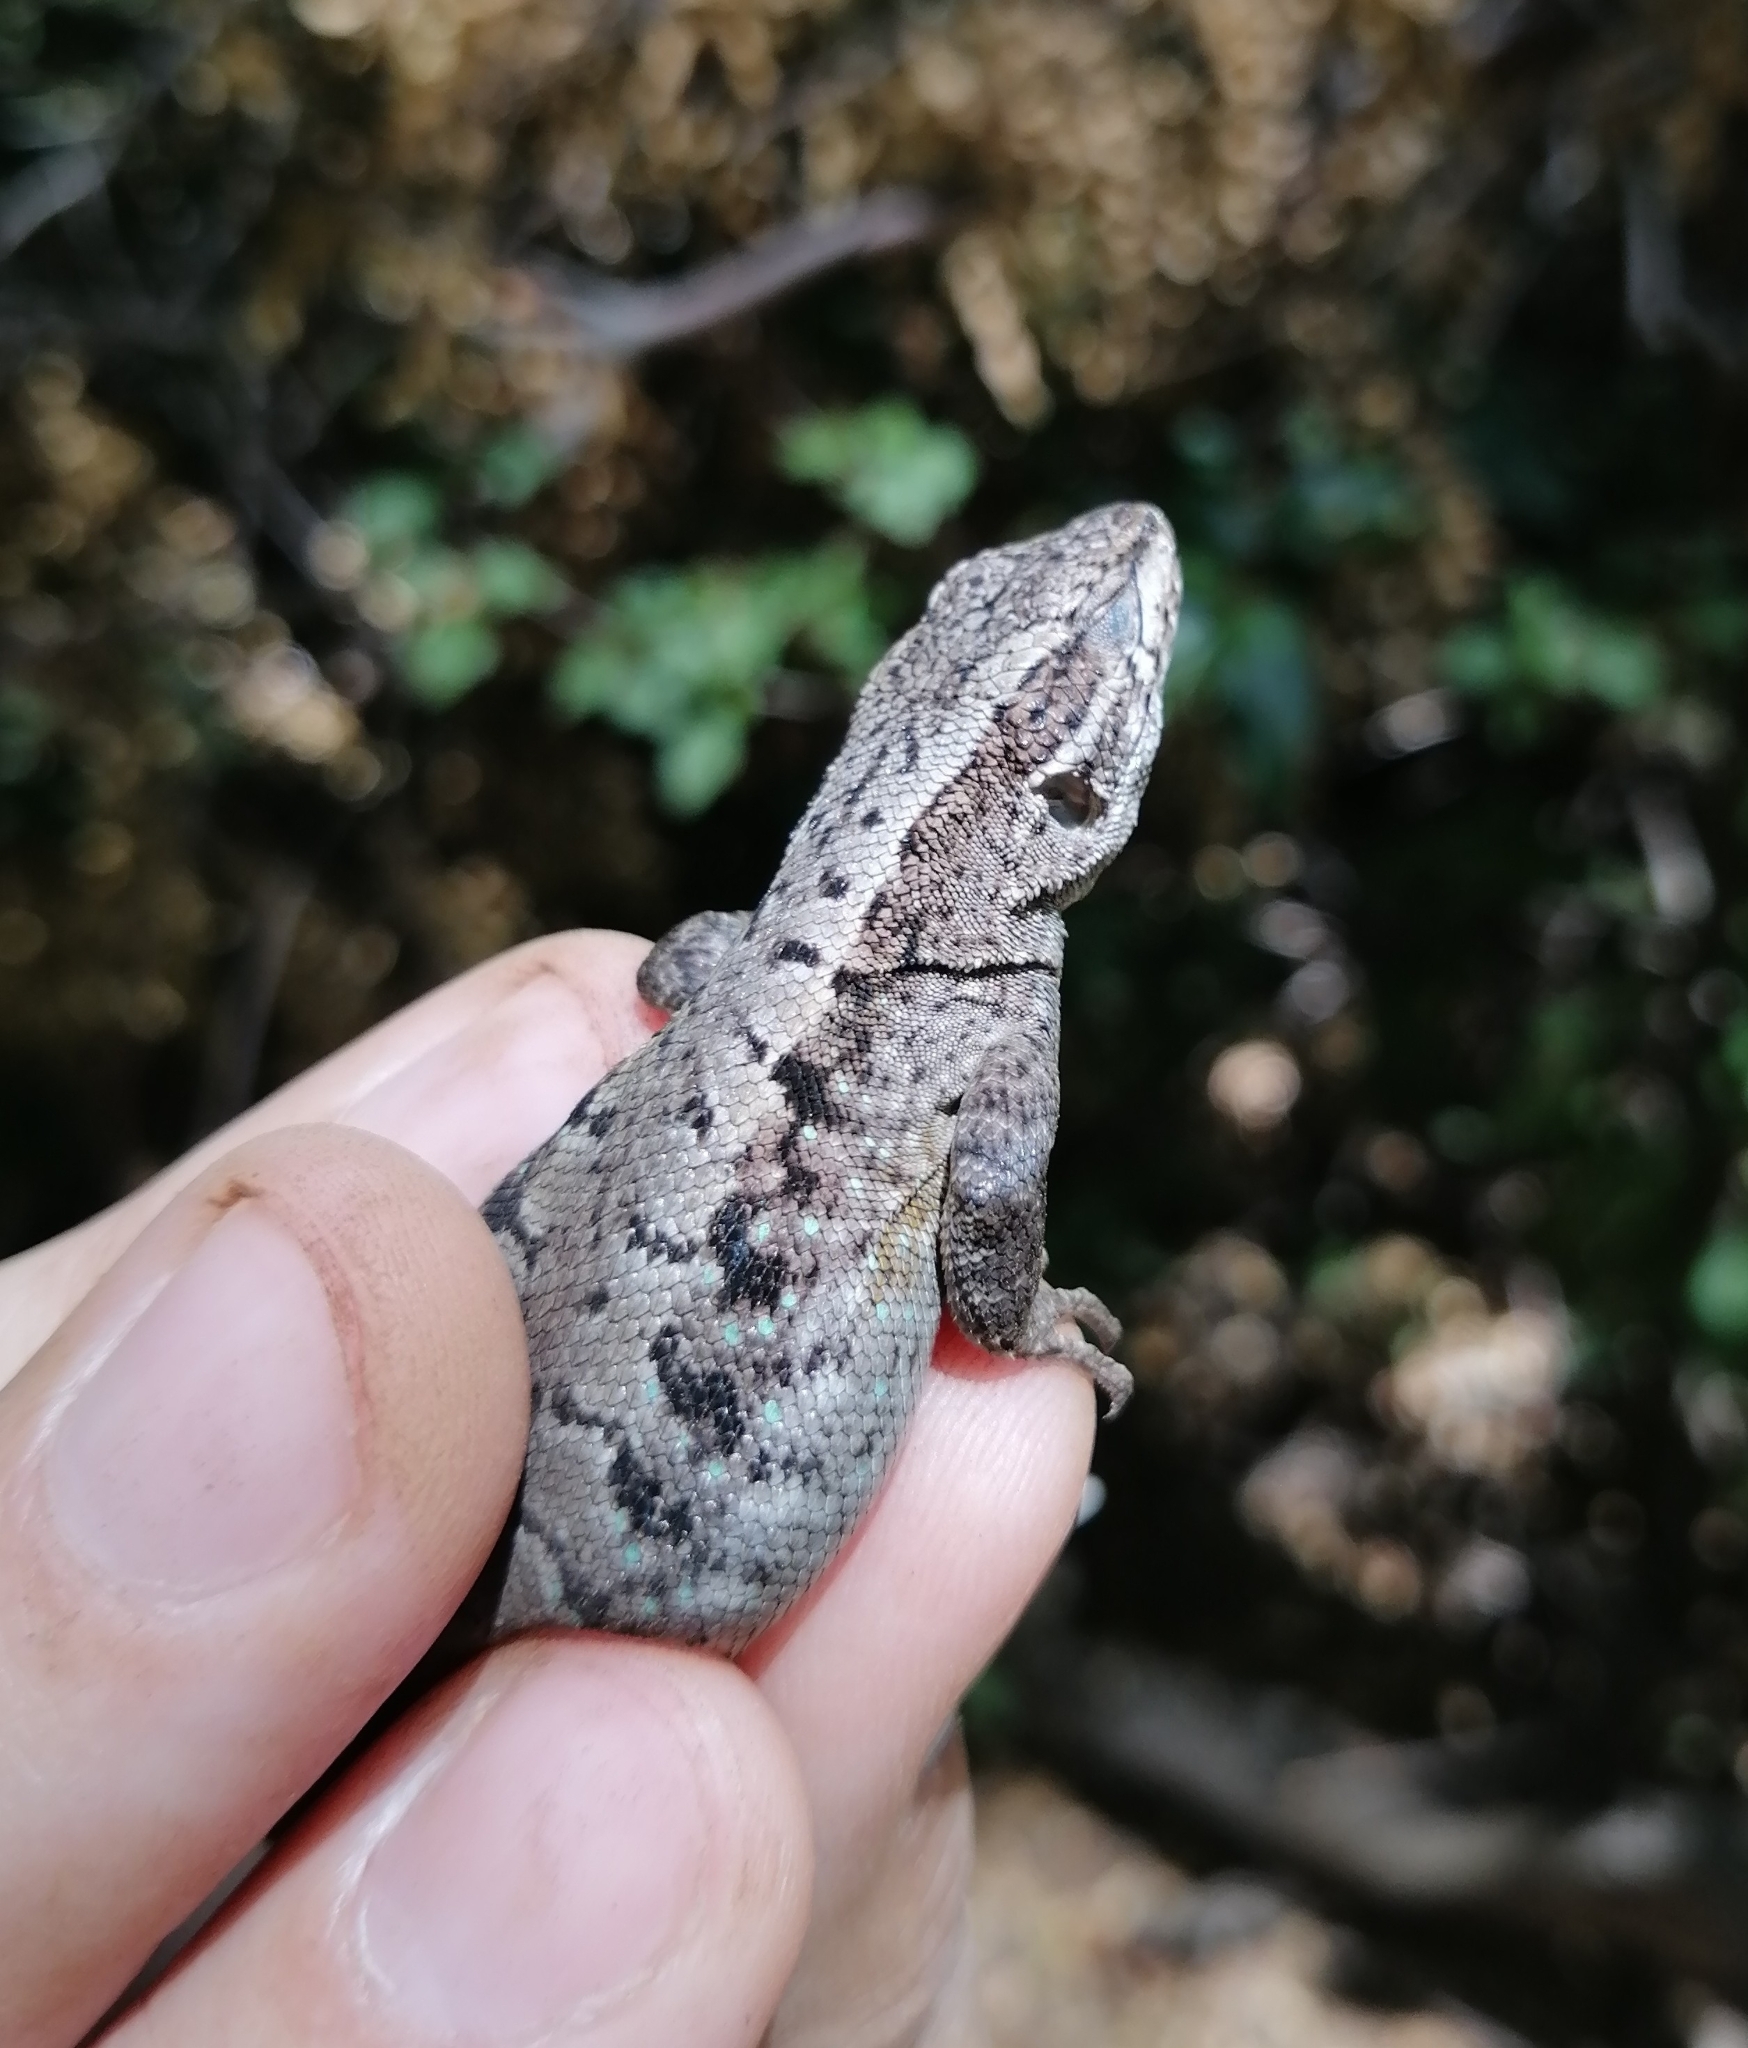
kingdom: Animalia
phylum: Chordata
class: Squamata
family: Liolaemidae
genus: Liolaemus
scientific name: Liolaemus septentrionalis
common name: Painted tree iguana
